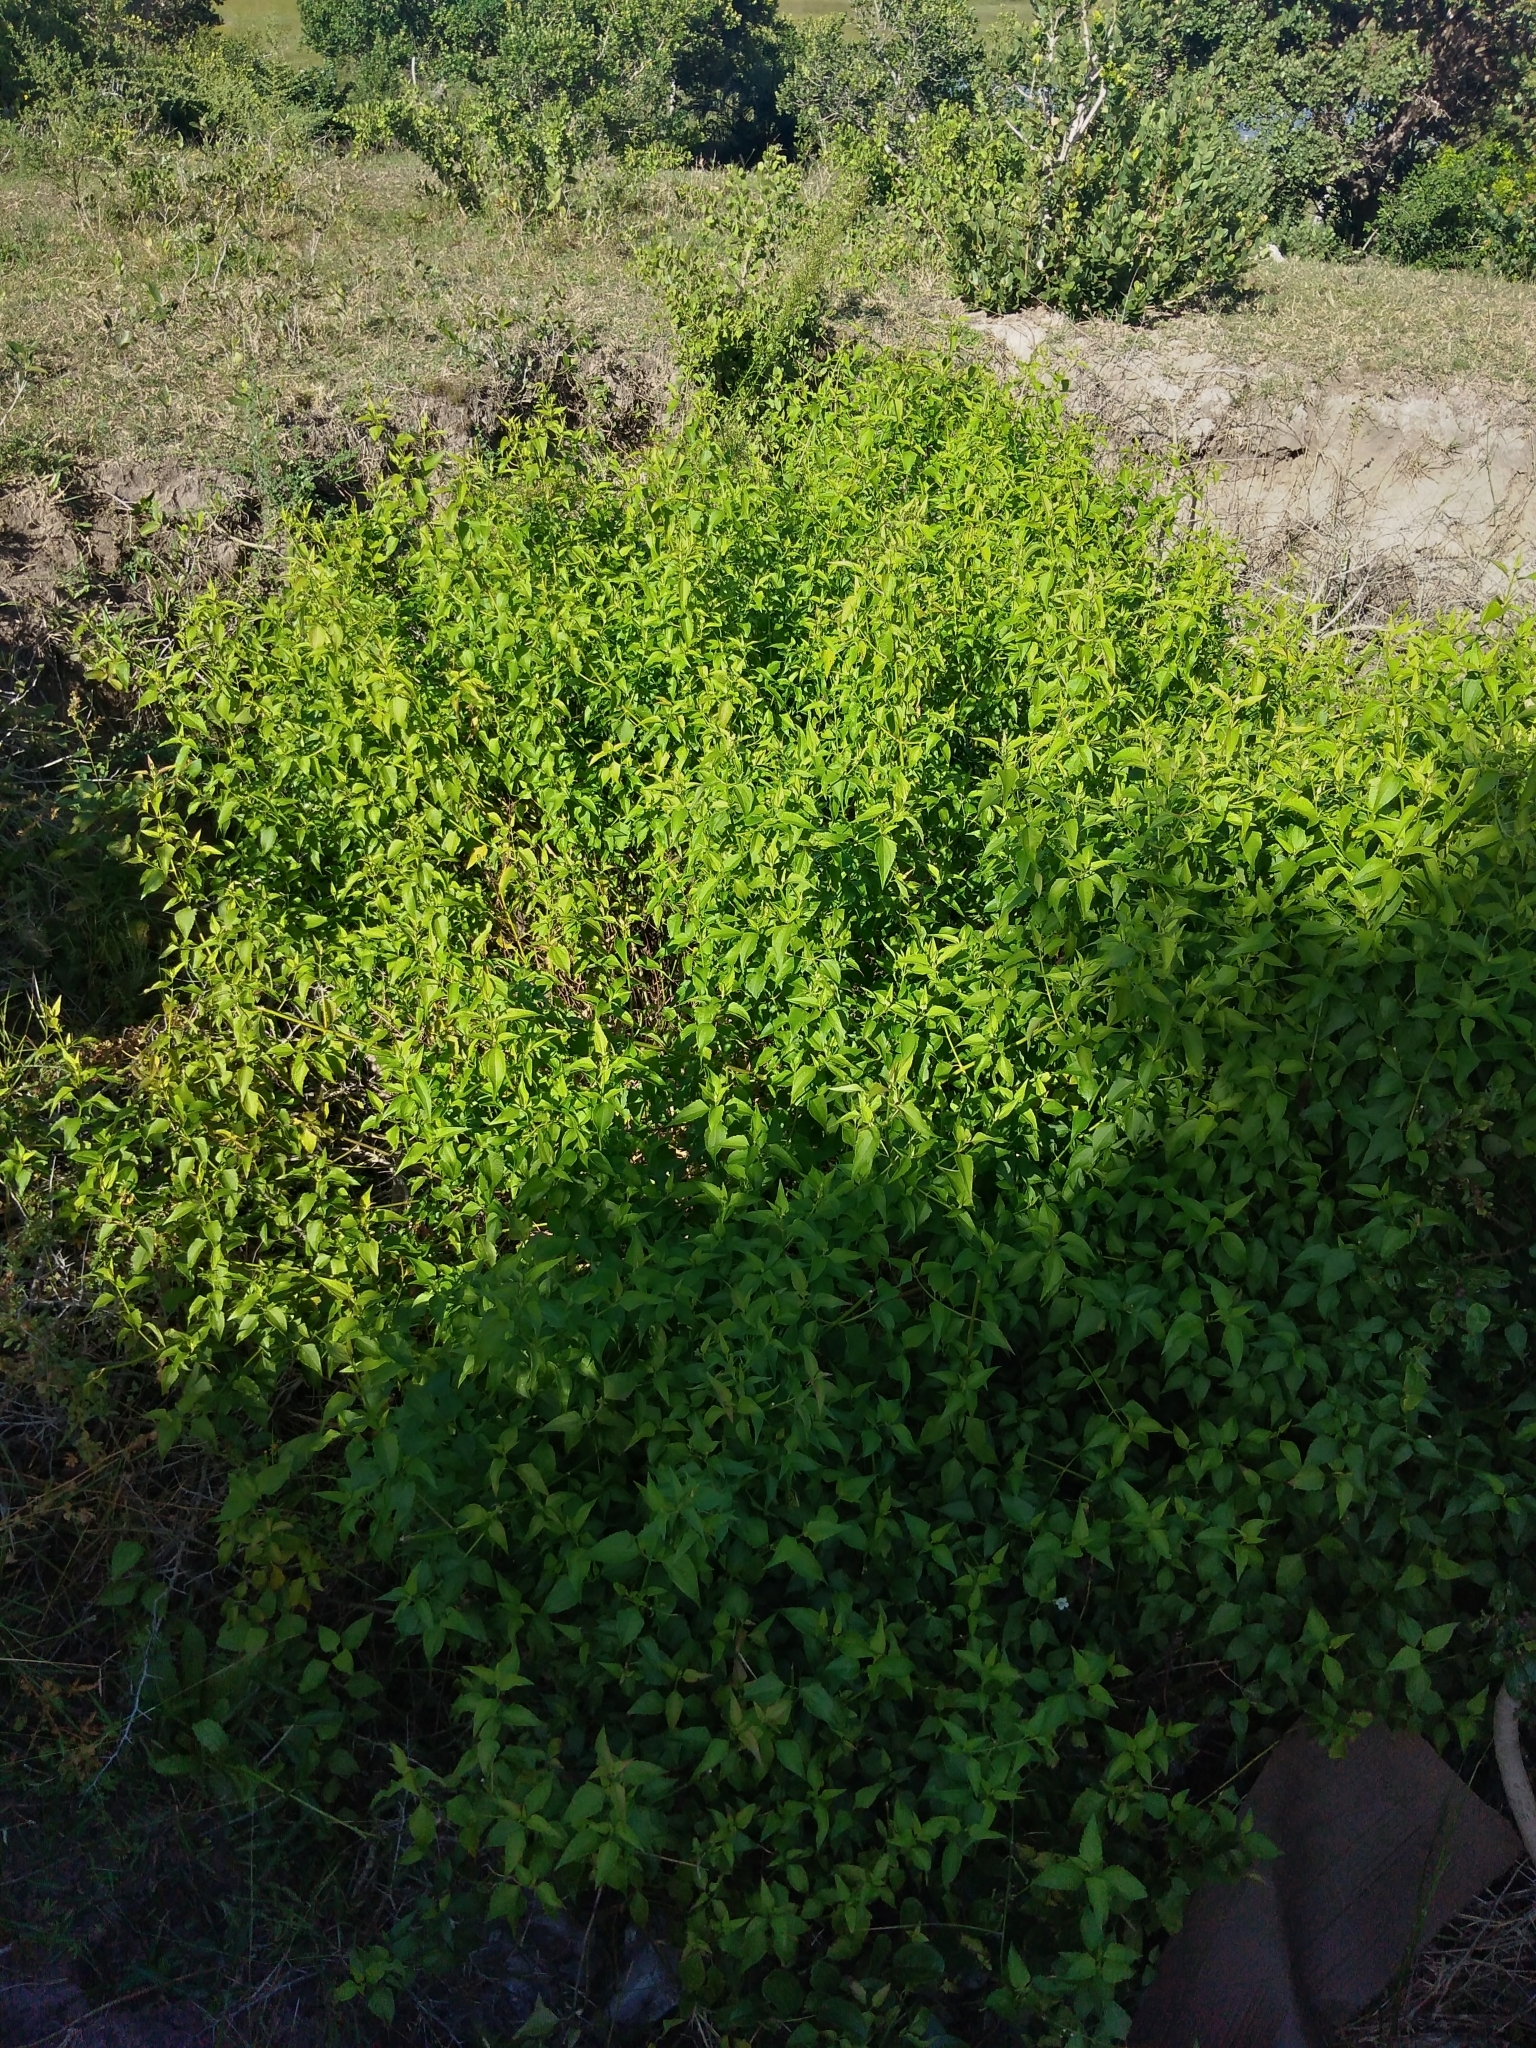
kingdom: Plantae
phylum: Tracheophyta
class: Magnoliopsida
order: Asterales
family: Asteraceae
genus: Chromolaena
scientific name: Chromolaena odorata
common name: Siamweed
